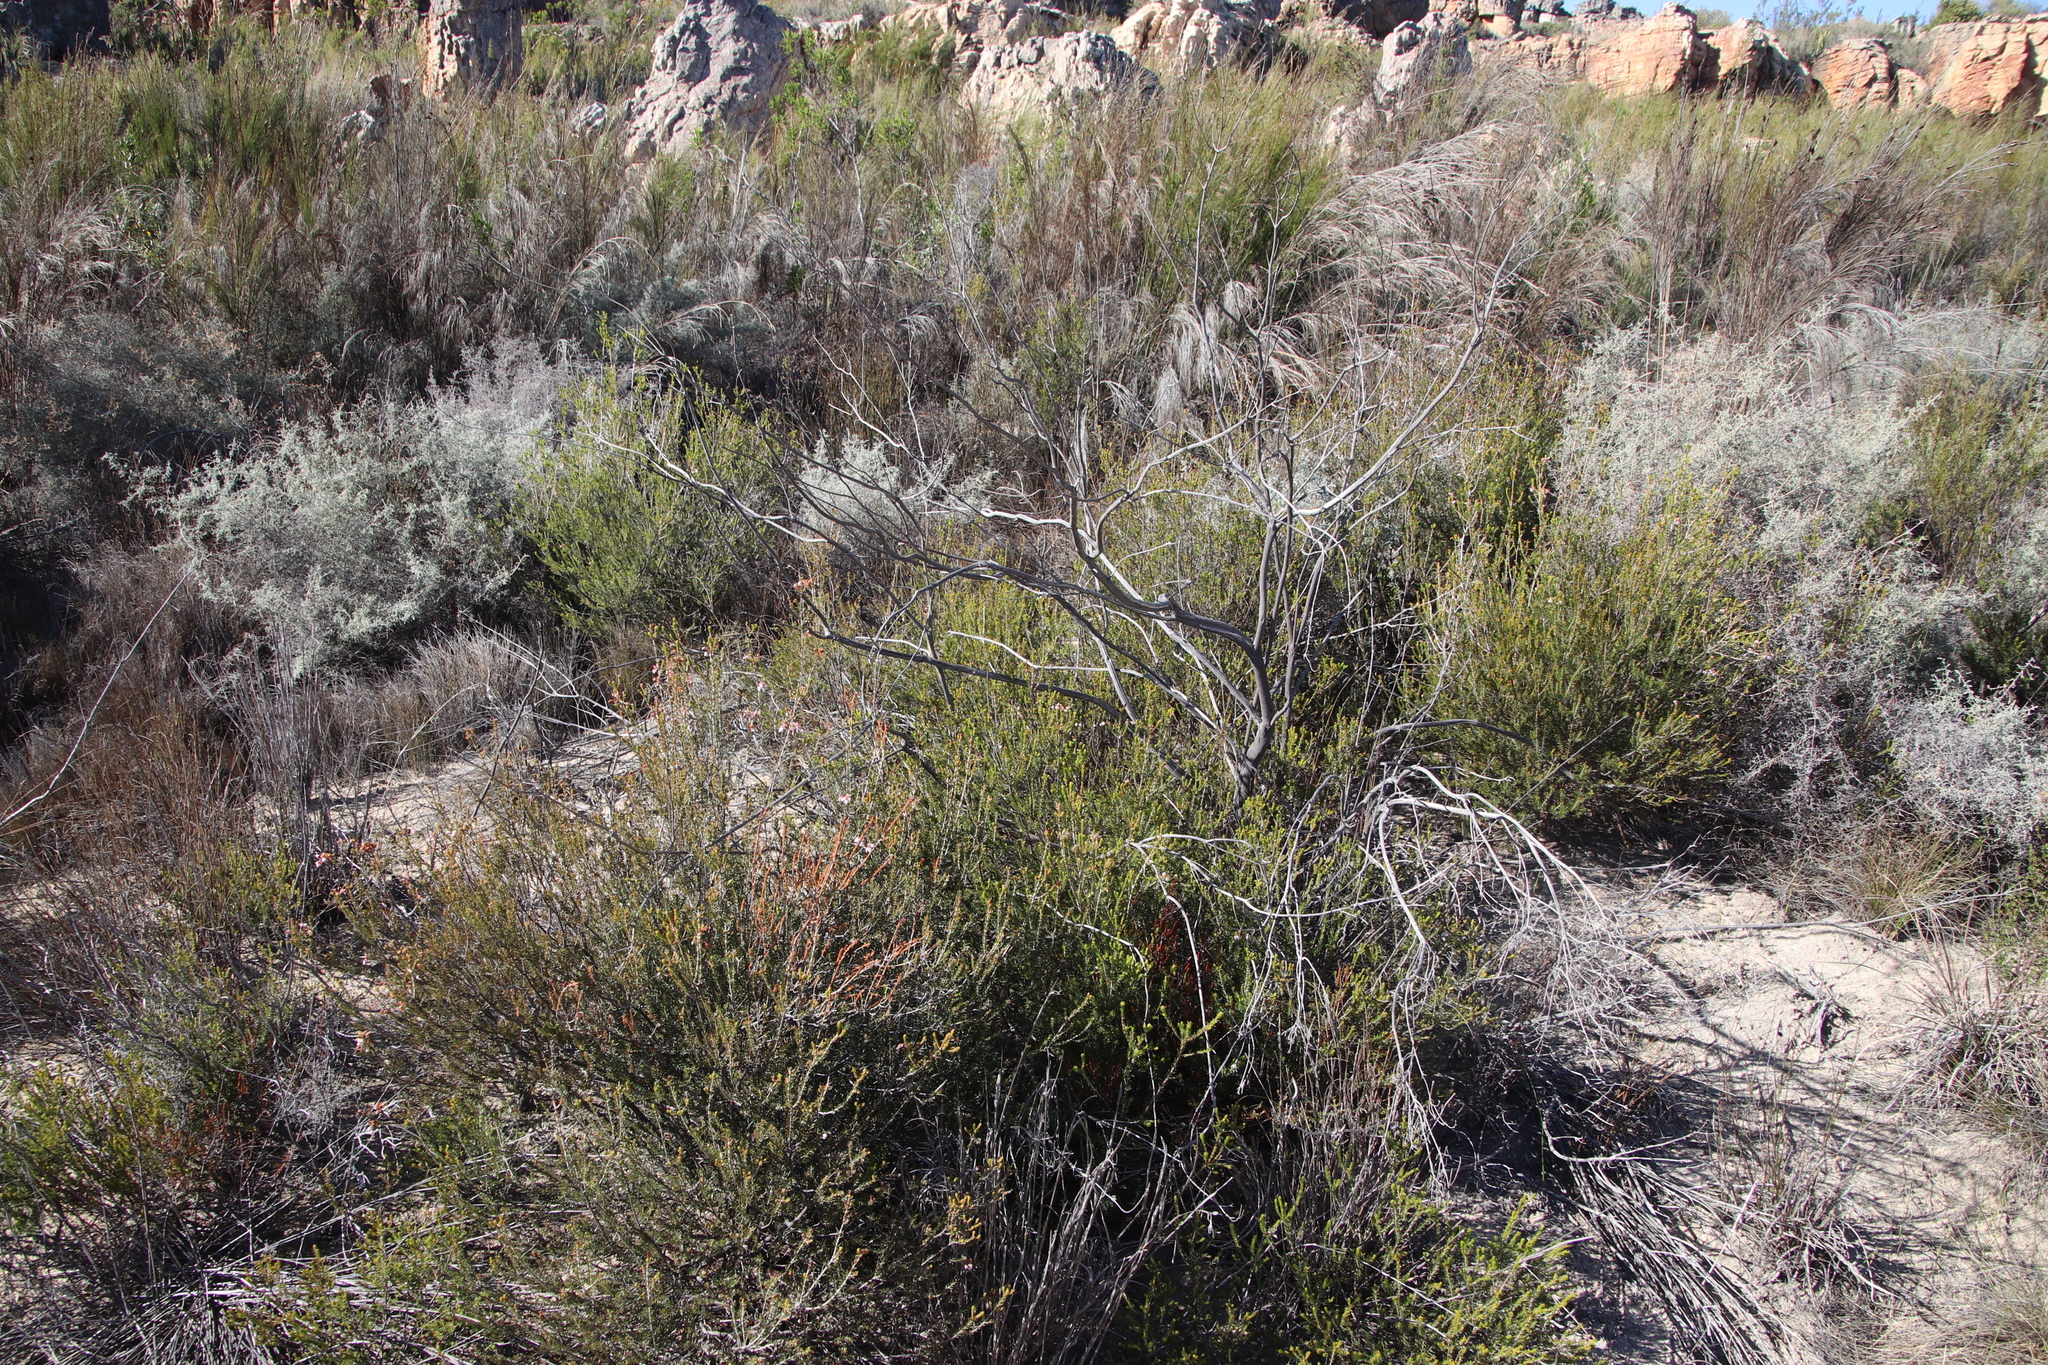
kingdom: Plantae
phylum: Tracheophyta
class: Magnoliopsida
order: Ericales
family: Ericaceae
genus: Erica
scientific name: Erica verecunda
